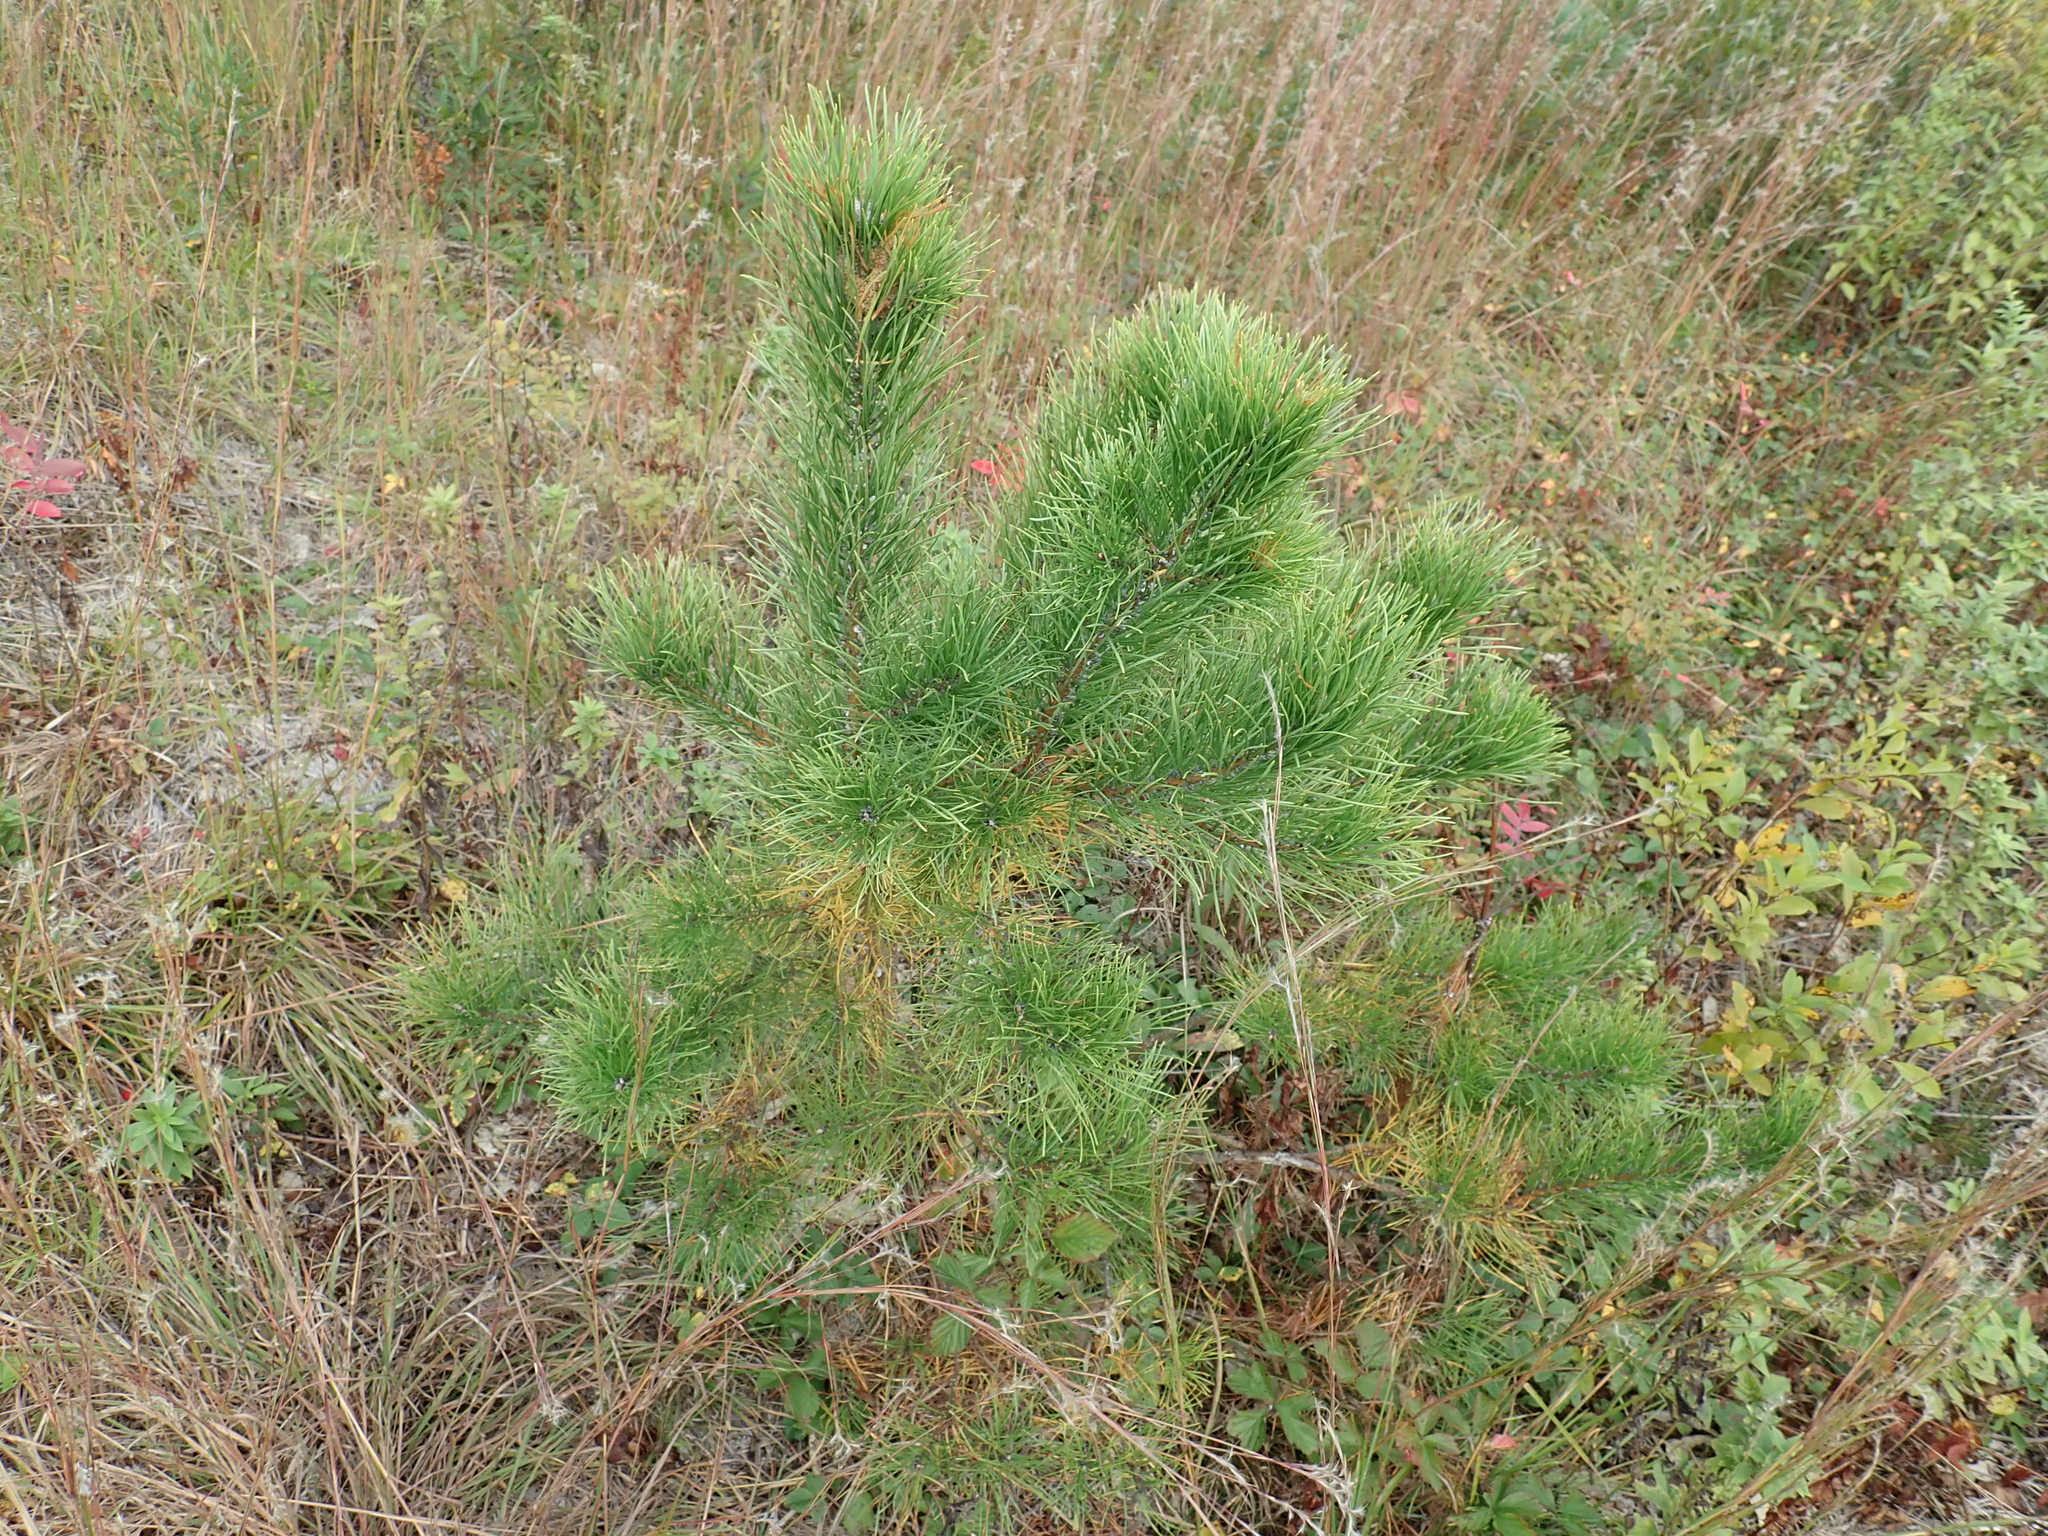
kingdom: Plantae
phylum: Tracheophyta
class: Pinopsida
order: Pinales
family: Pinaceae
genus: Pinus
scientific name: Pinus rigida
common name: Pitch pine
